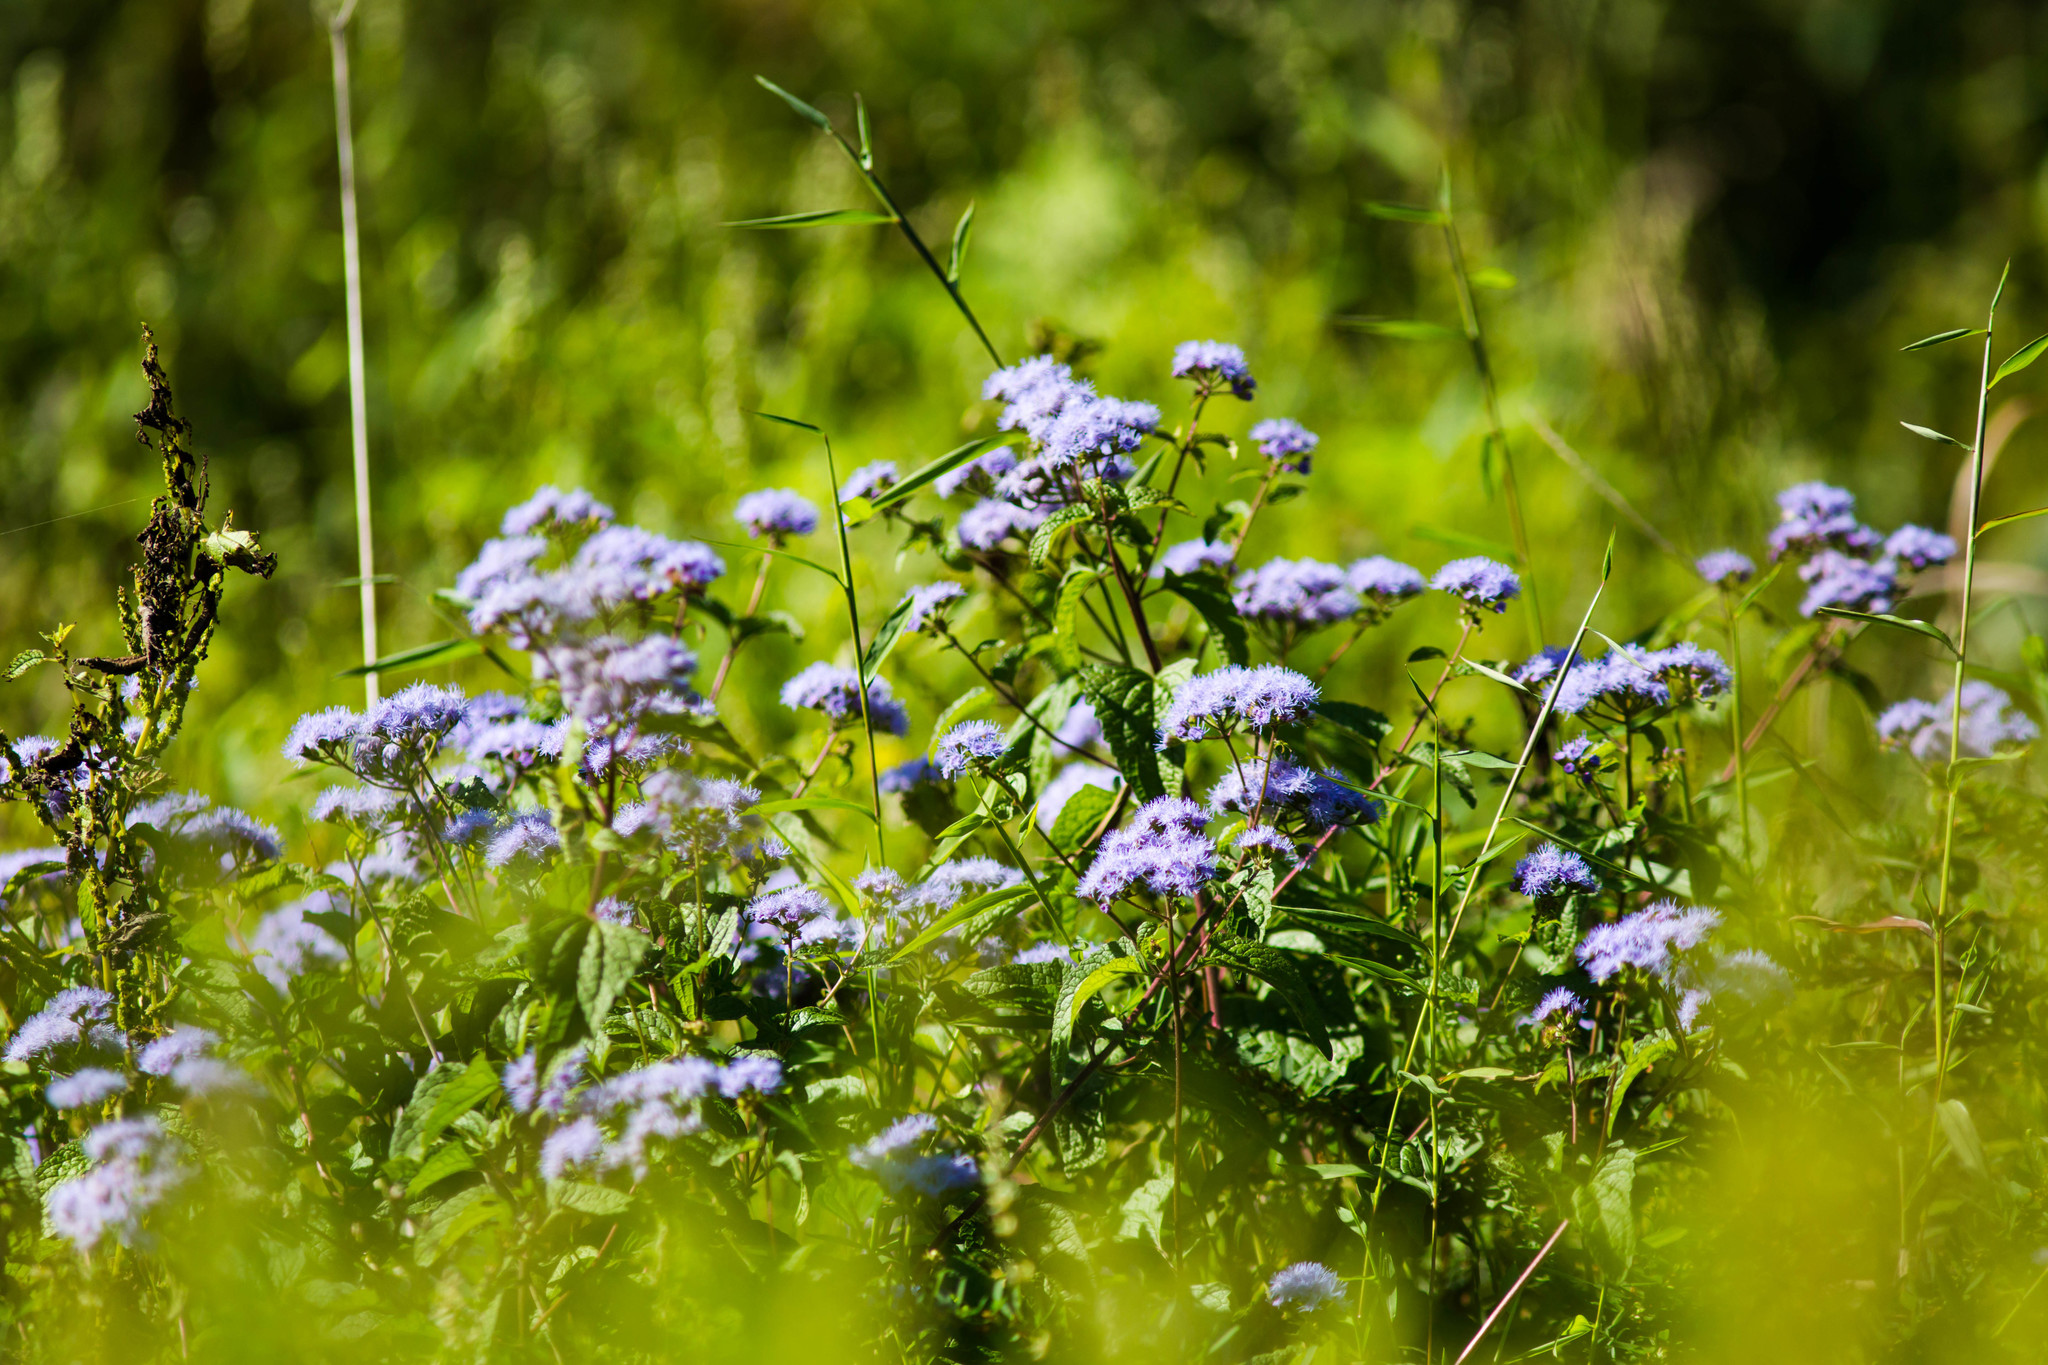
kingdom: Plantae
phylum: Tracheophyta
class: Magnoliopsida
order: Asterales
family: Asteraceae
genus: Conoclinium
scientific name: Conoclinium coelestinum
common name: Blue mistflower
